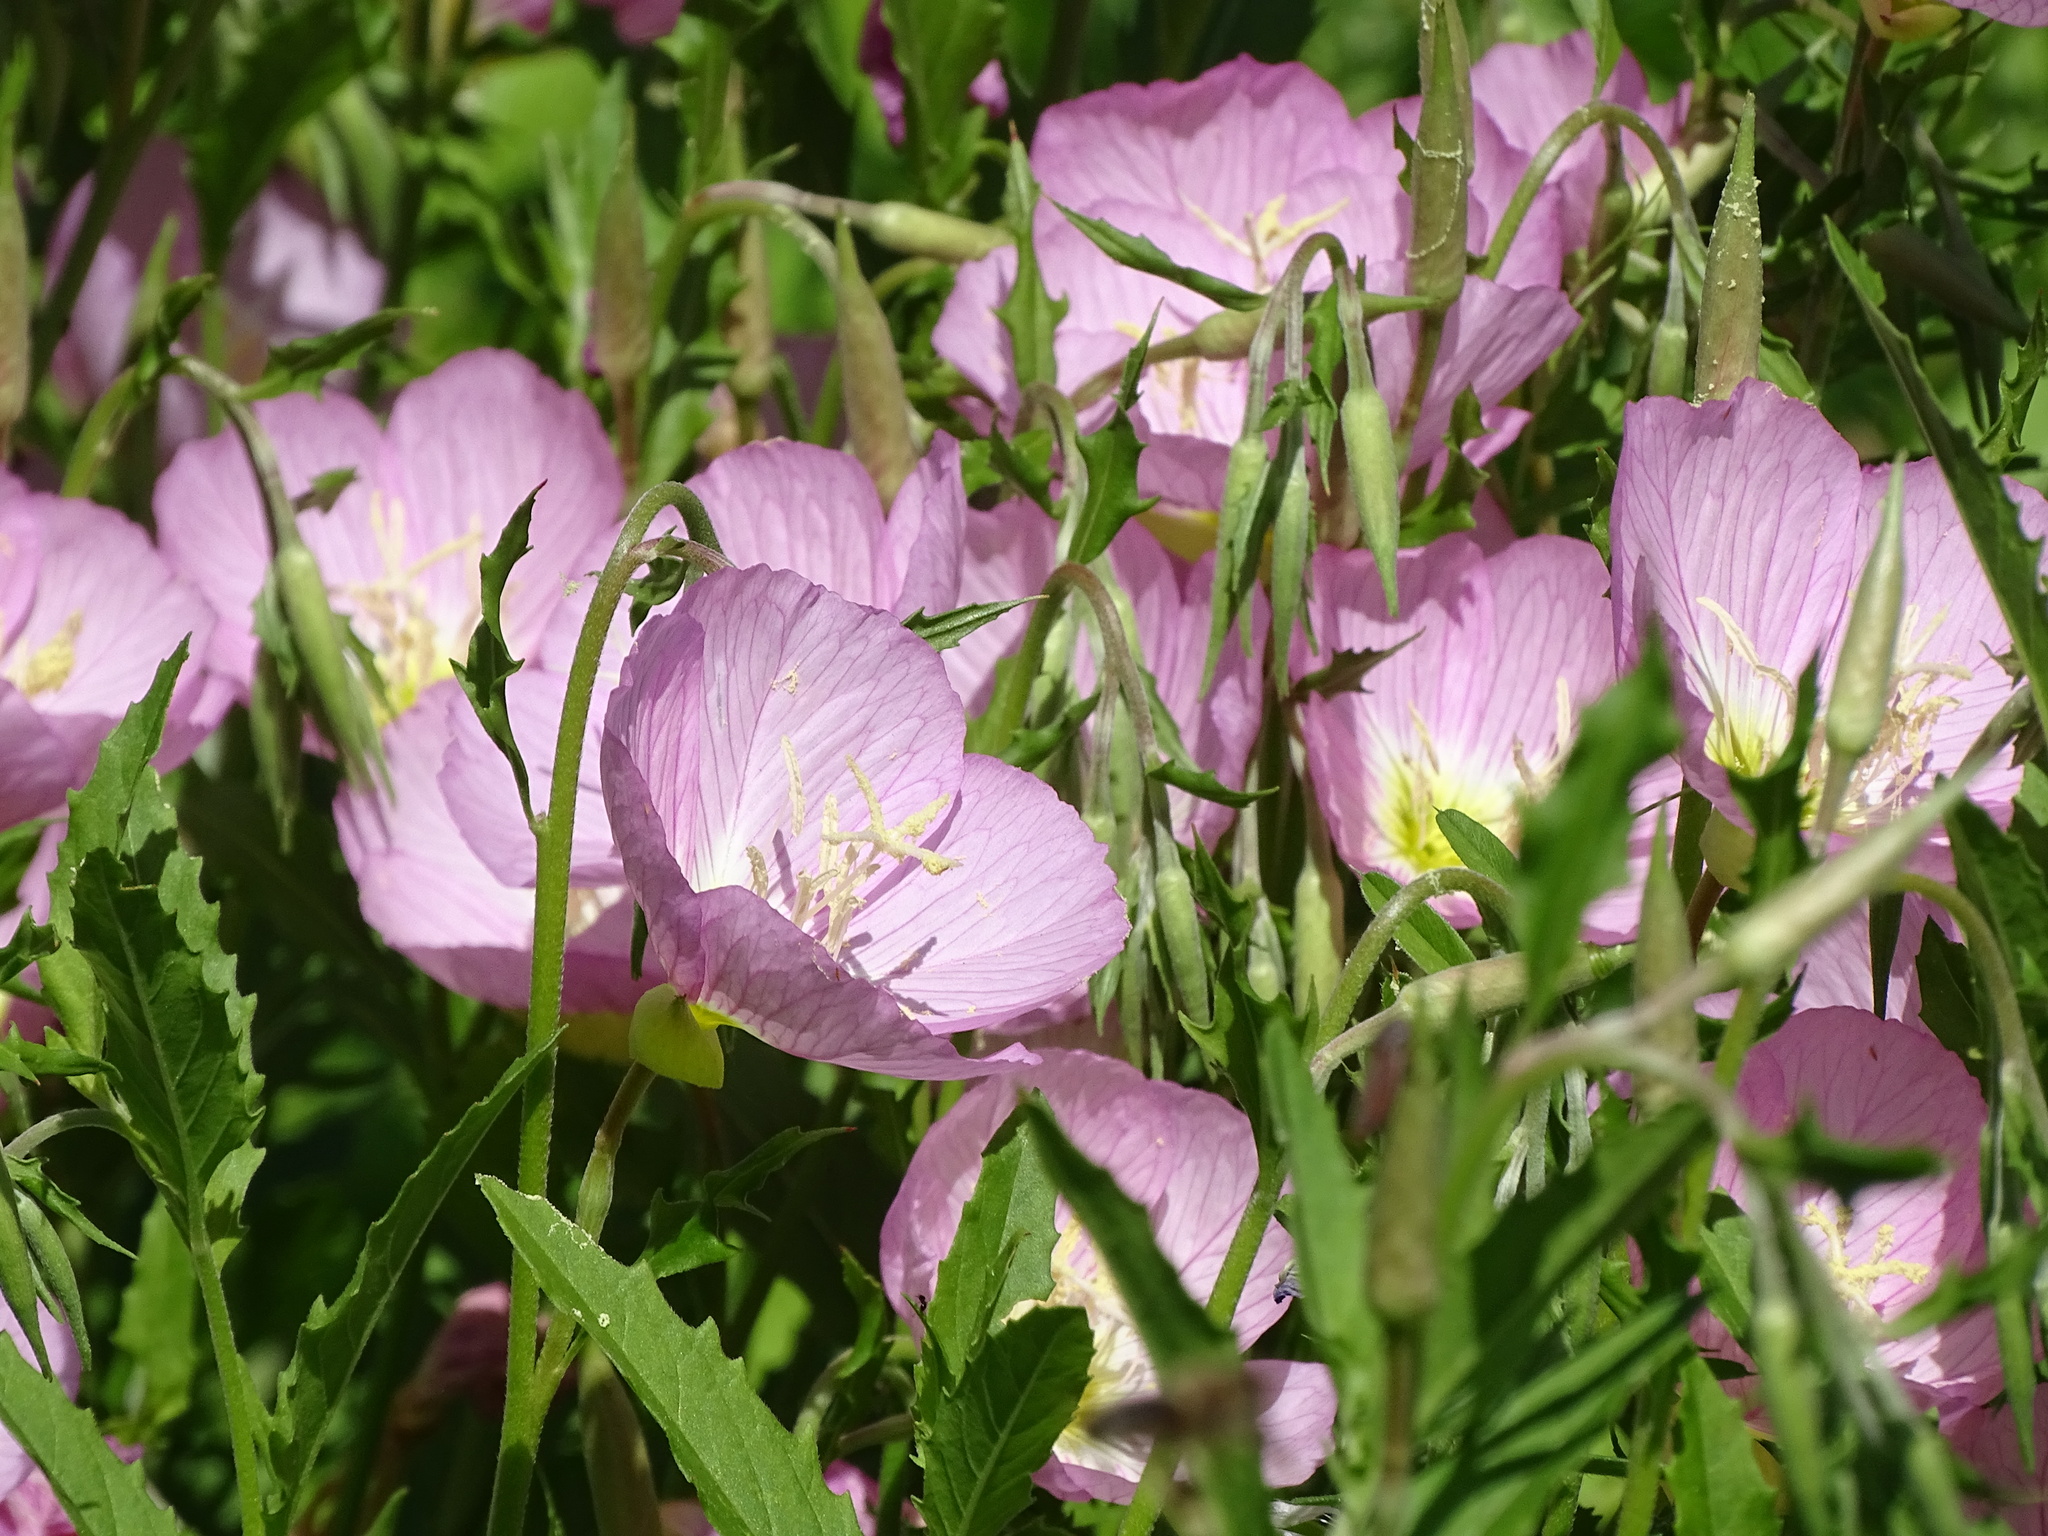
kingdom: Plantae
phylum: Tracheophyta
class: Magnoliopsida
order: Myrtales
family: Onagraceae
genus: Oenothera
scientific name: Oenothera speciosa
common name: White evening-primrose
